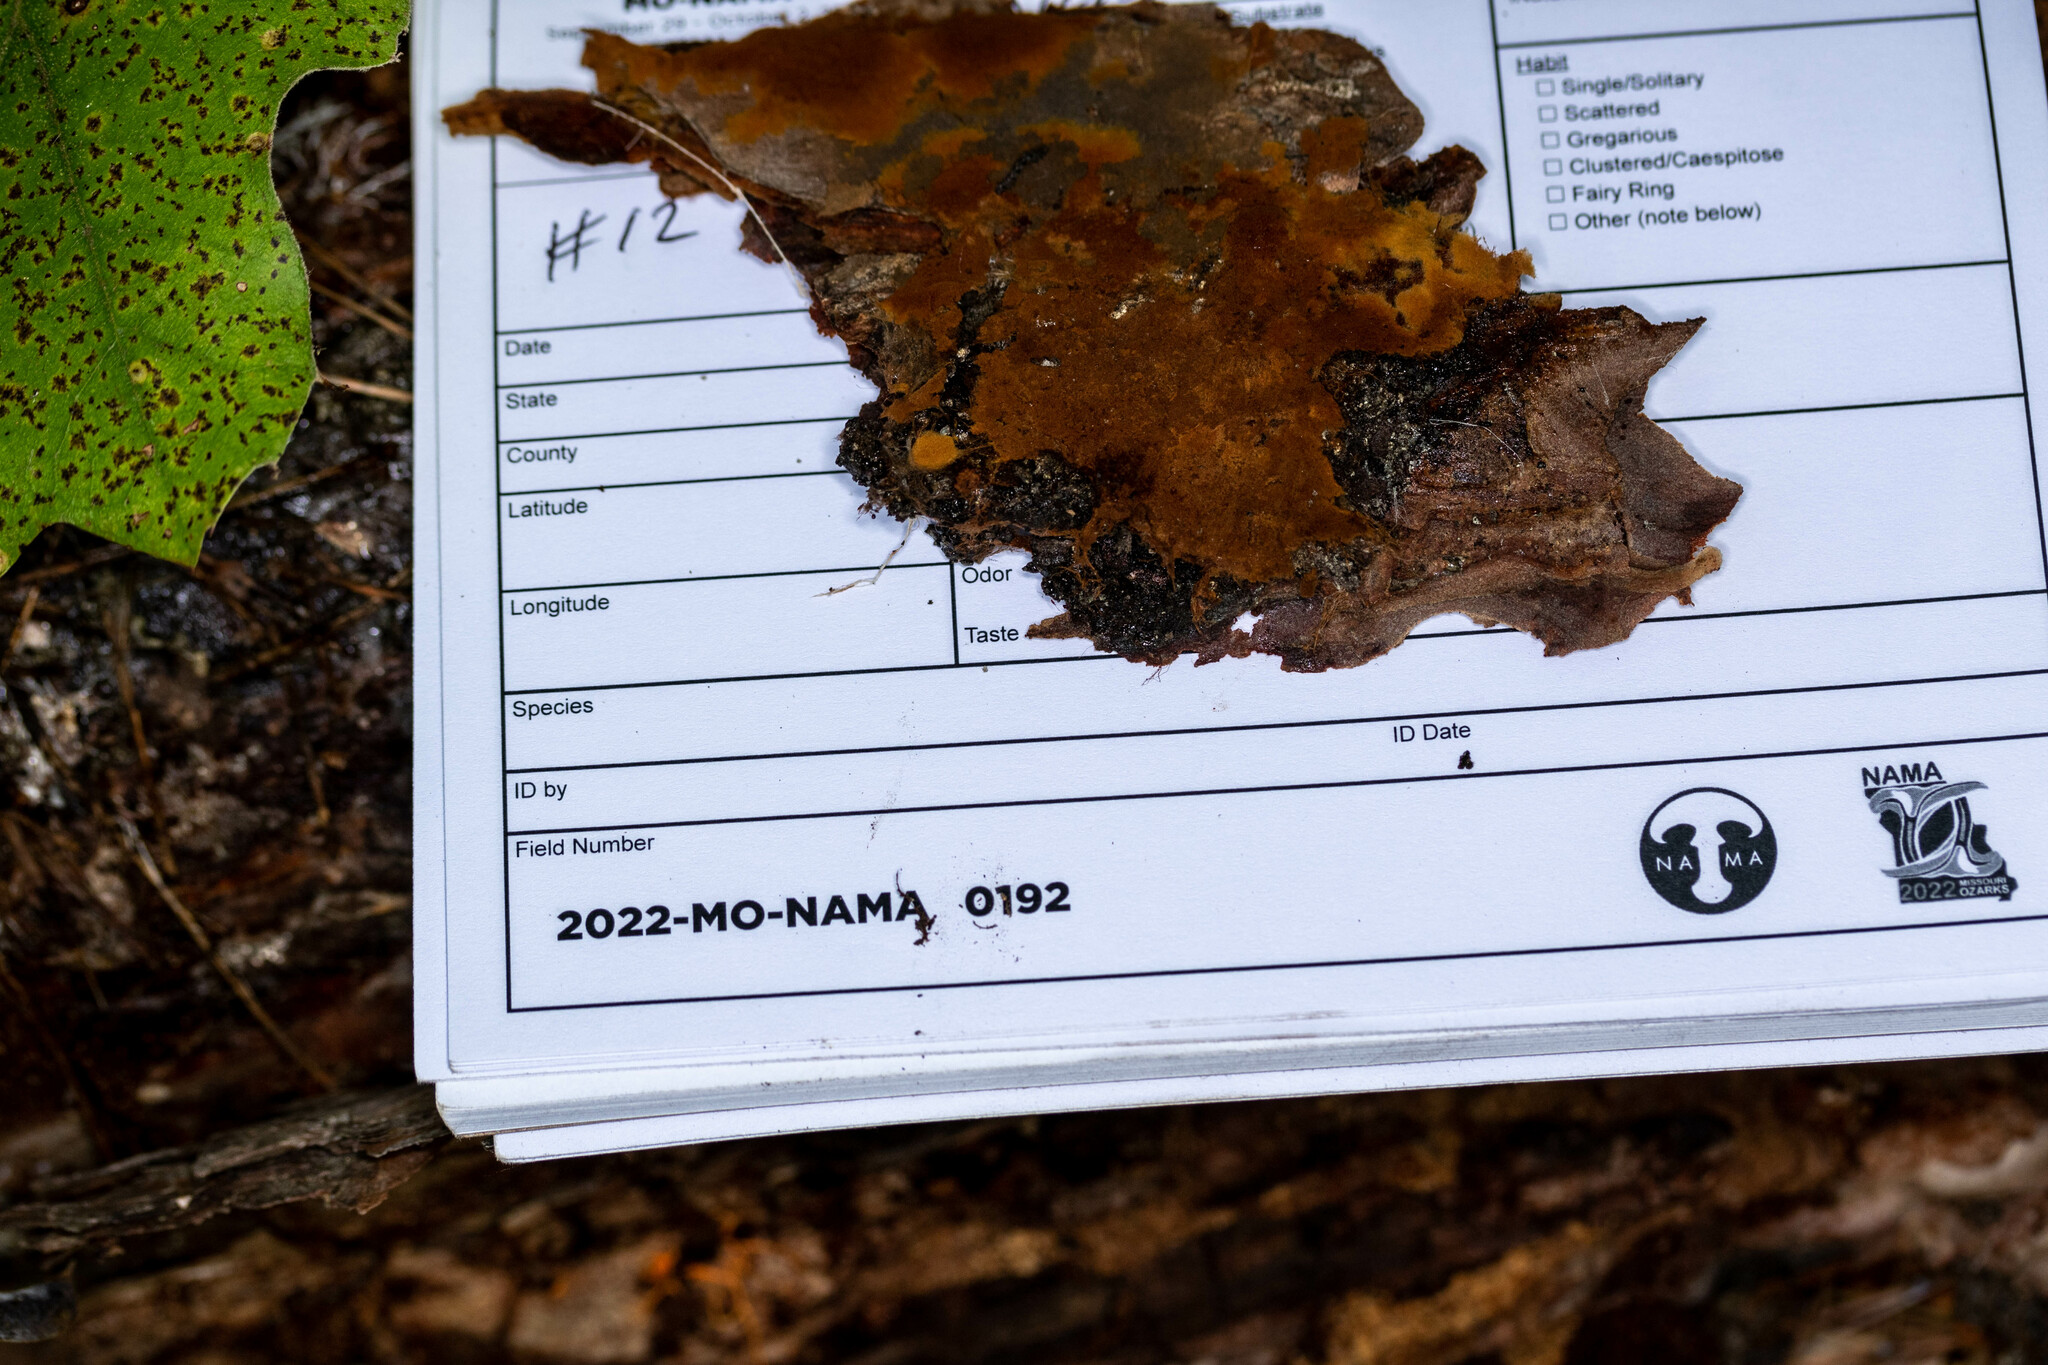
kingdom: Fungi
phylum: Basidiomycota
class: Agaricomycetes
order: Cantharellales
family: Botryobasidiaceae
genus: Botryobasidium
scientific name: Botryobasidium aureum
